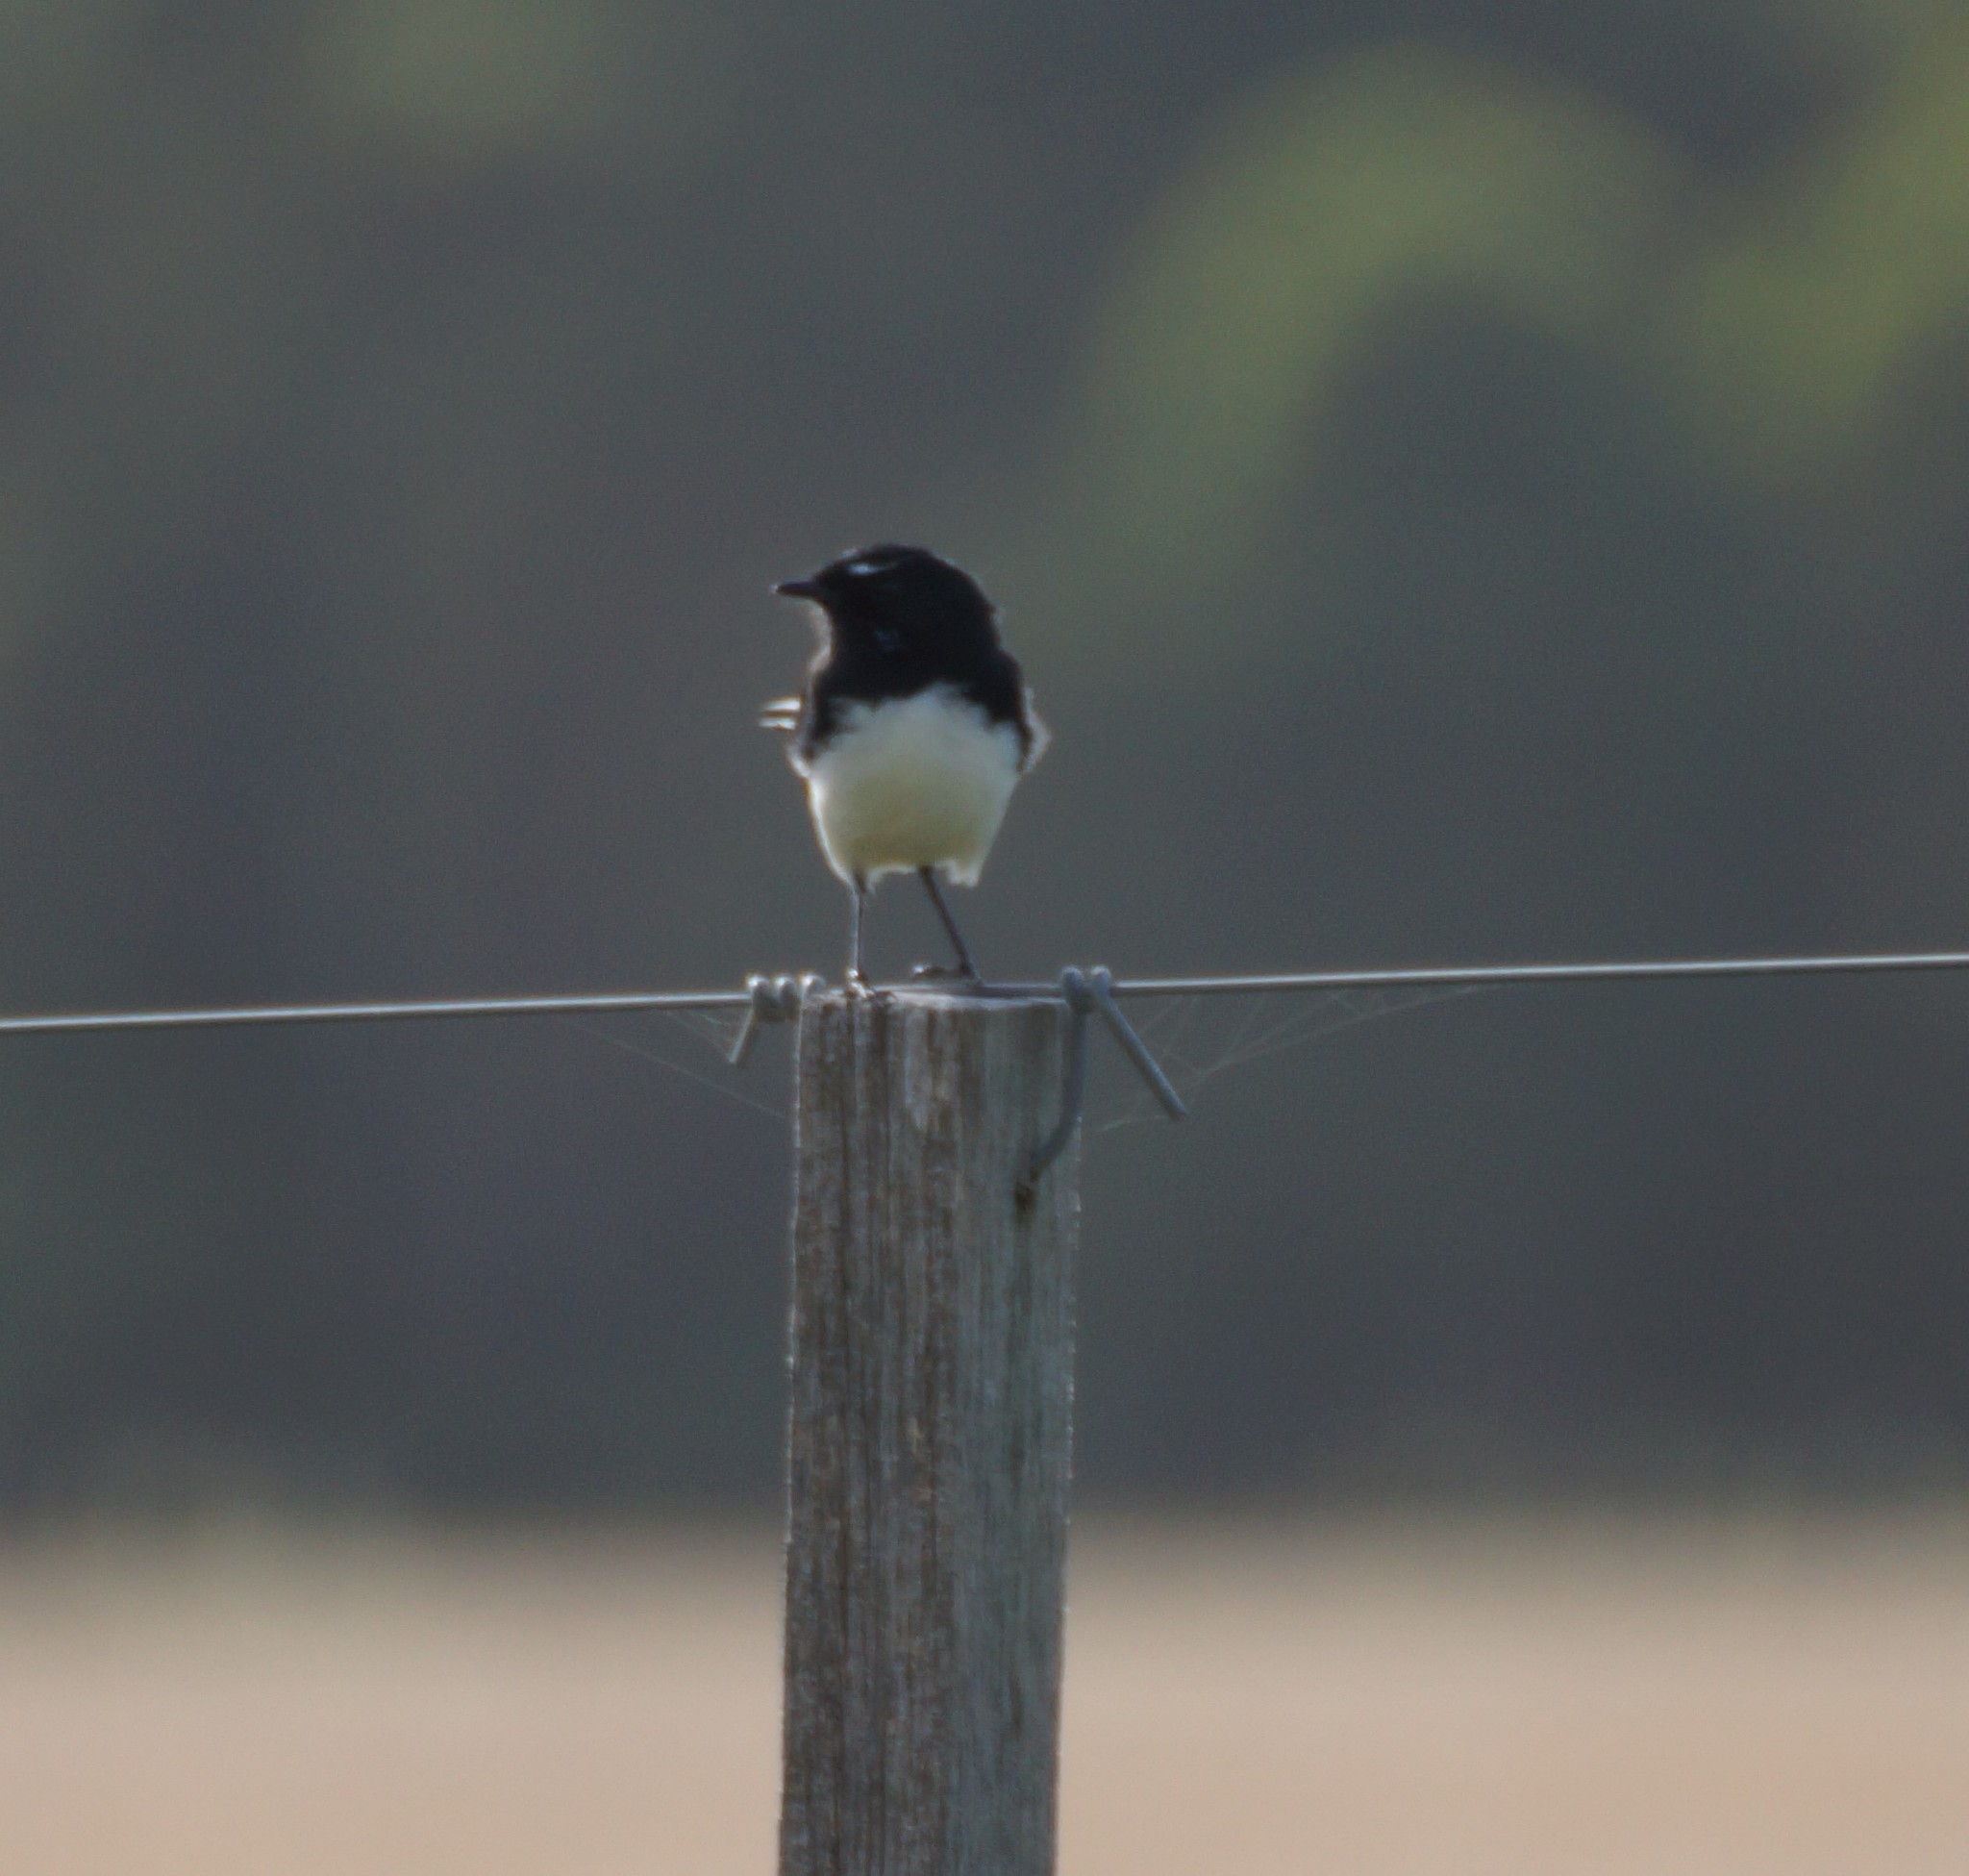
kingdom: Animalia
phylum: Chordata
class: Aves
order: Passeriformes
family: Rhipiduridae
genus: Rhipidura
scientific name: Rhipidura leucophrys
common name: Willie wagtail
